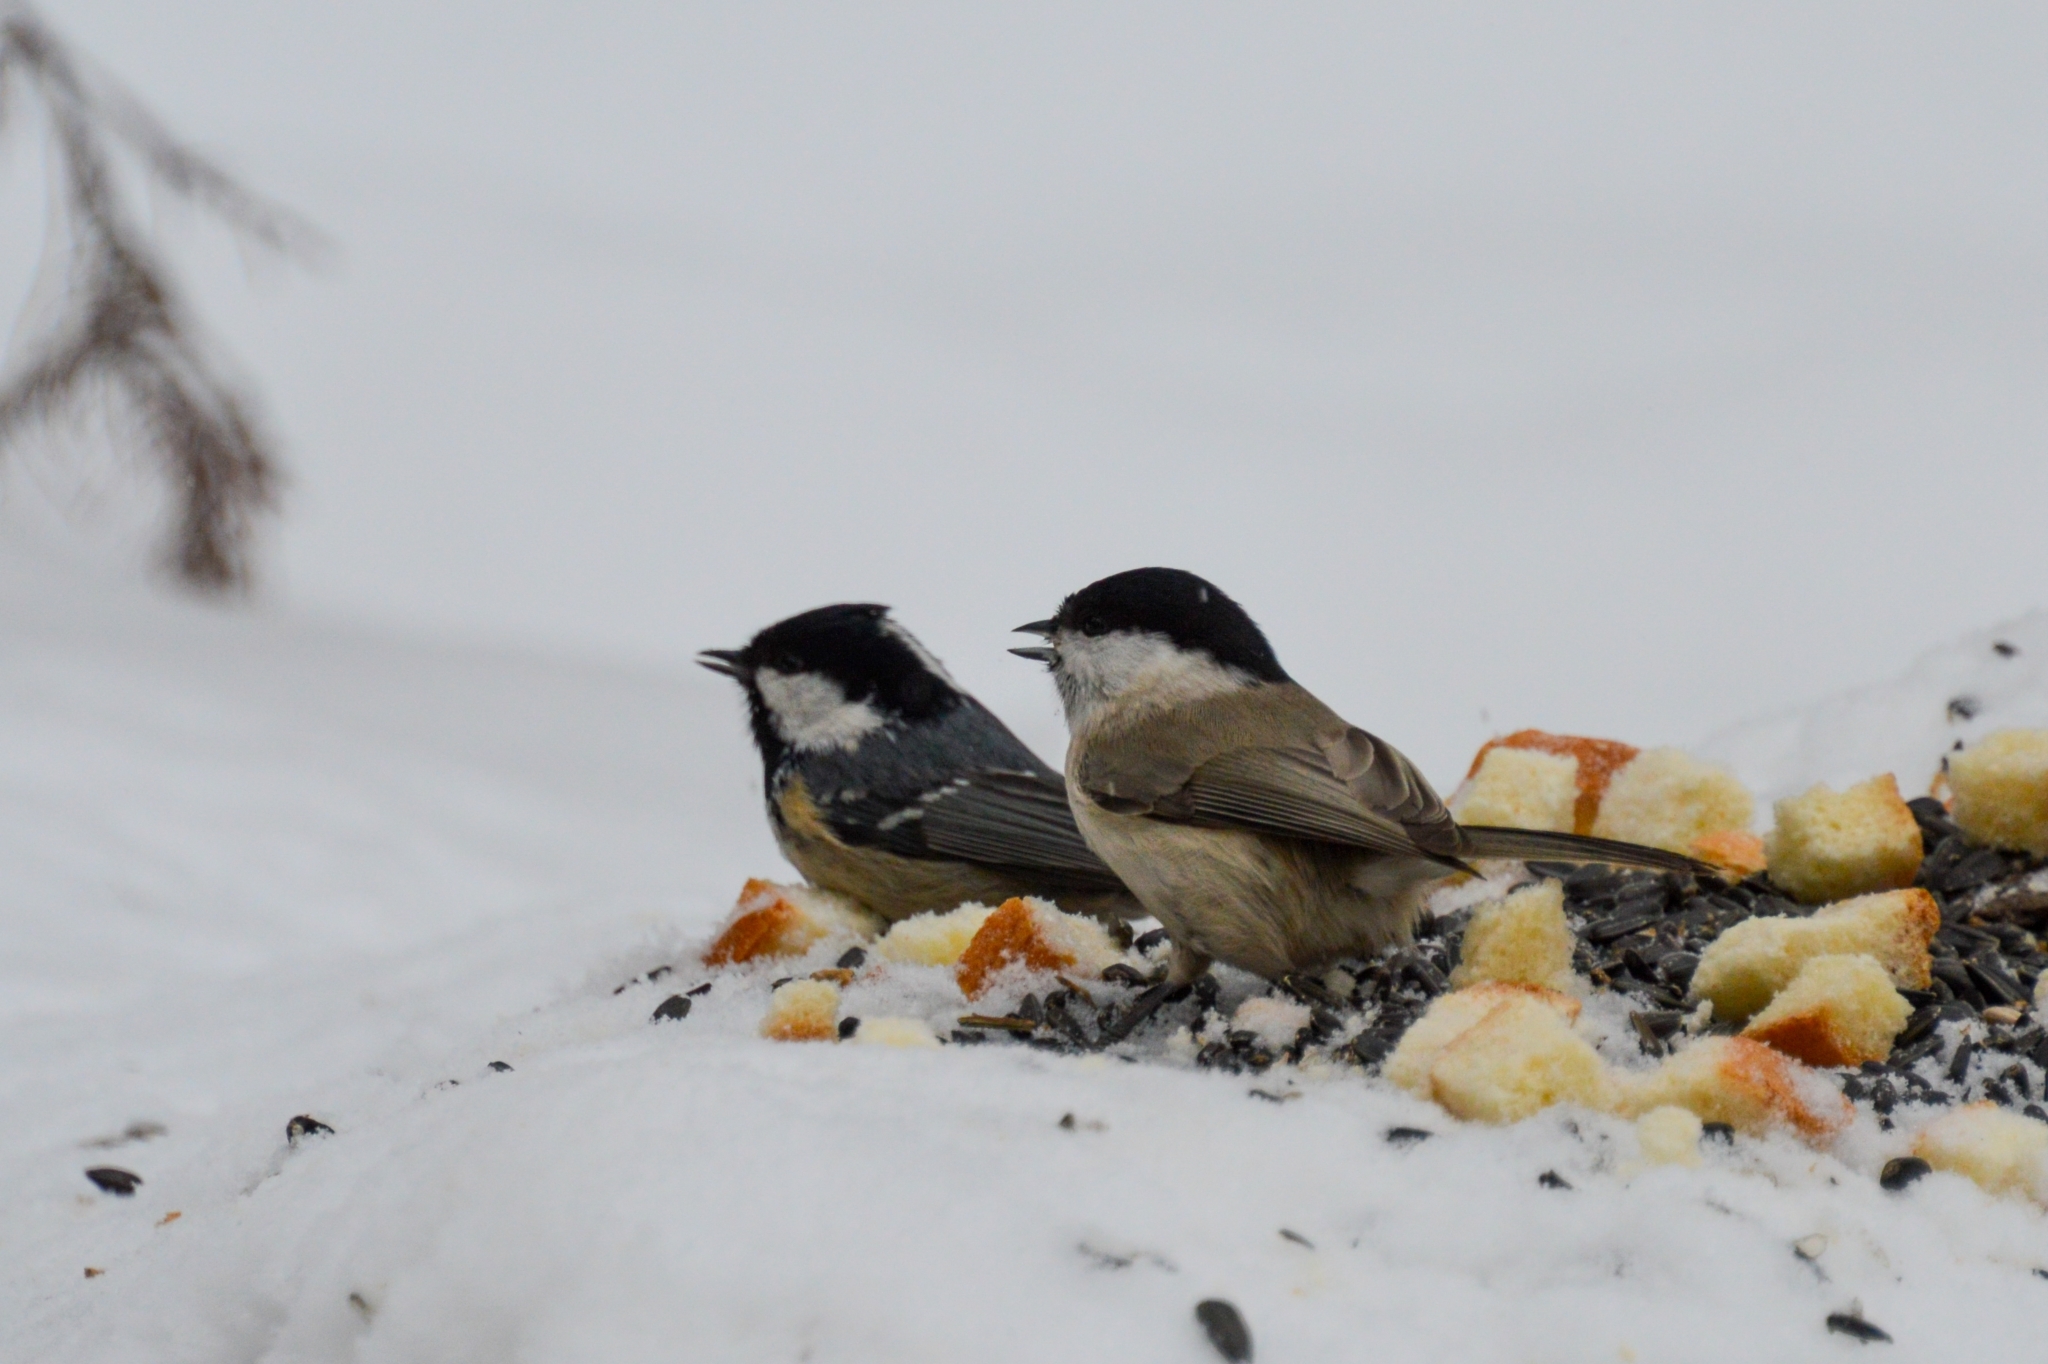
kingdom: Animalia
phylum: Chordata
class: Aves
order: Passeriformes
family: Paridae
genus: Poecile
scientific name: Poecile palustris
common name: Marsh tit
